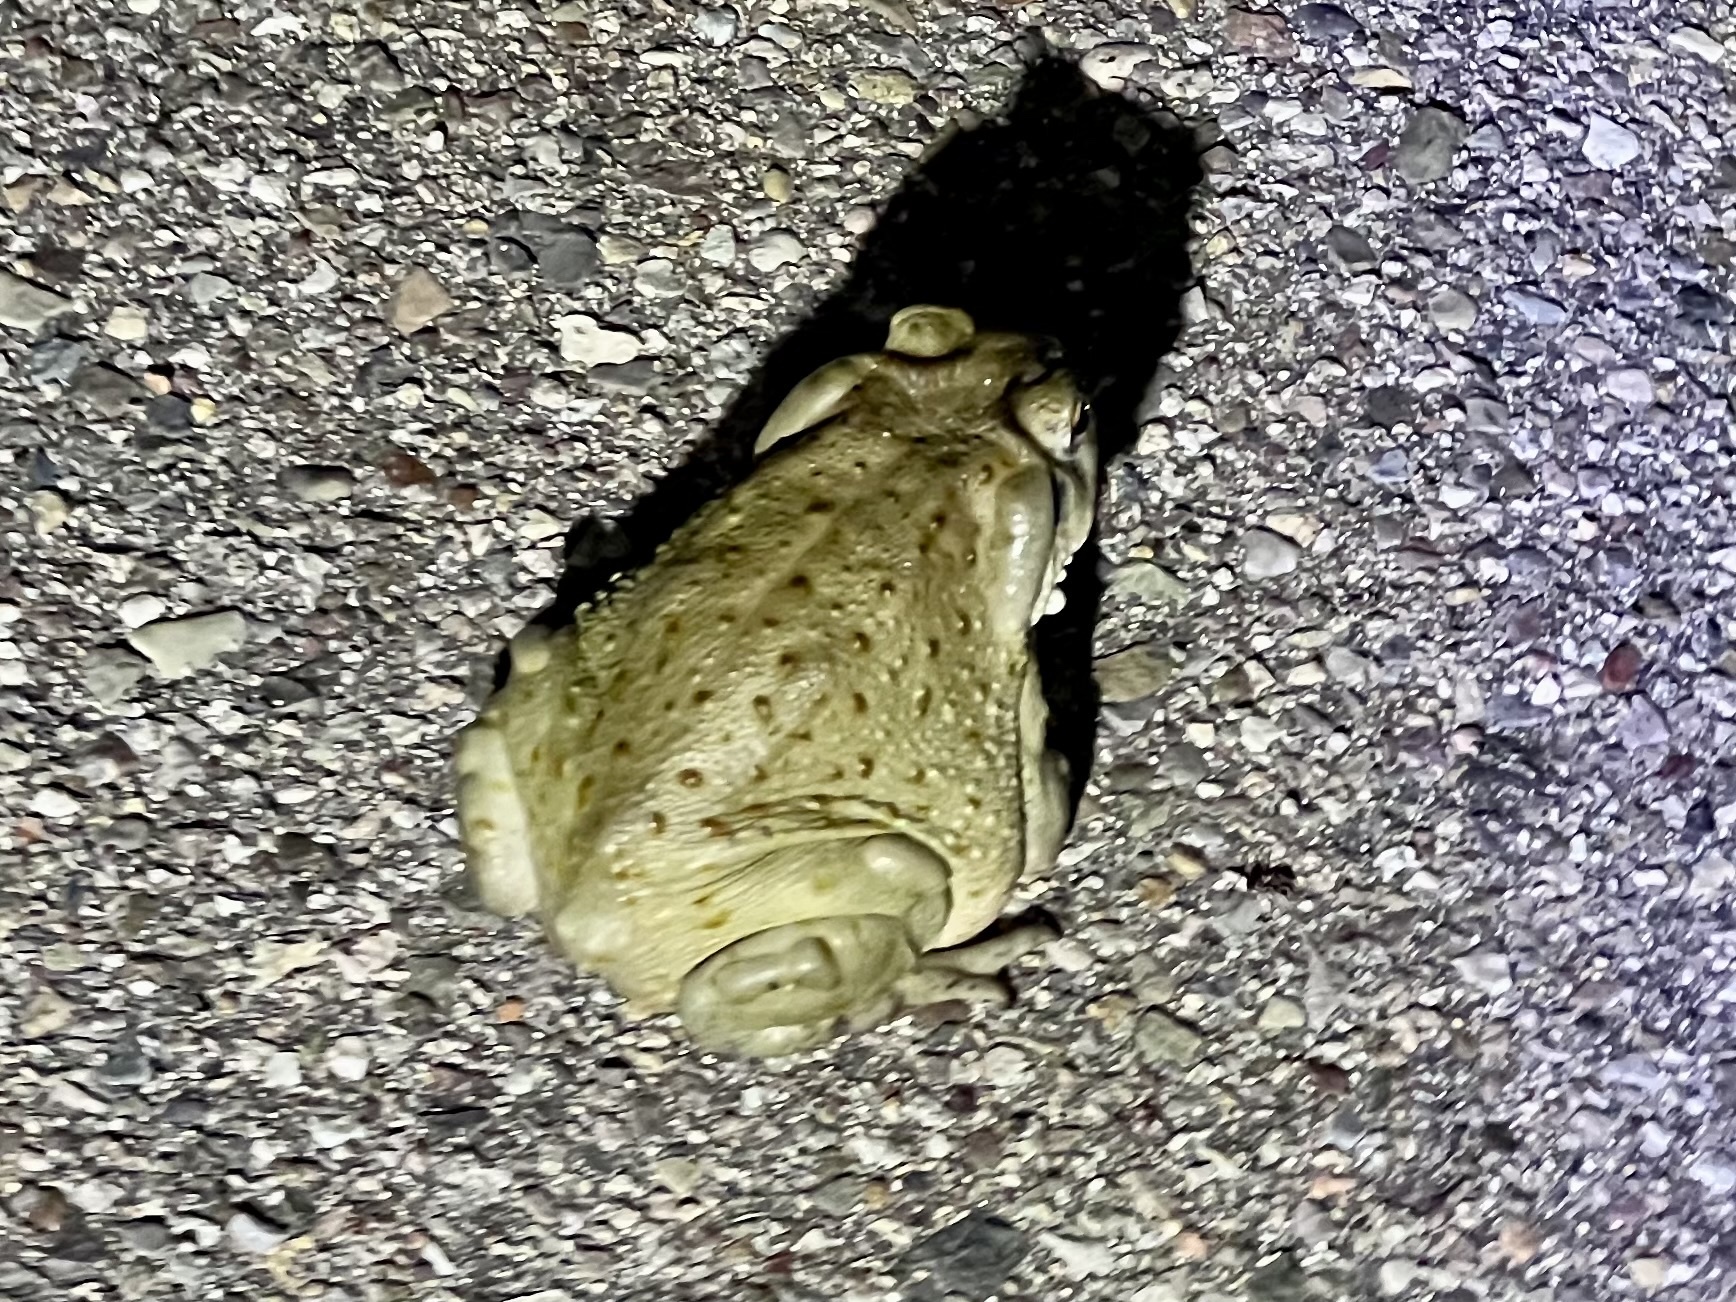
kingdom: Animalia
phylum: Chordata
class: Amphibia
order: Anura
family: Bufonidae
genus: Incilius
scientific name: Incilius alvarius
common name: Sonoran desert toad
